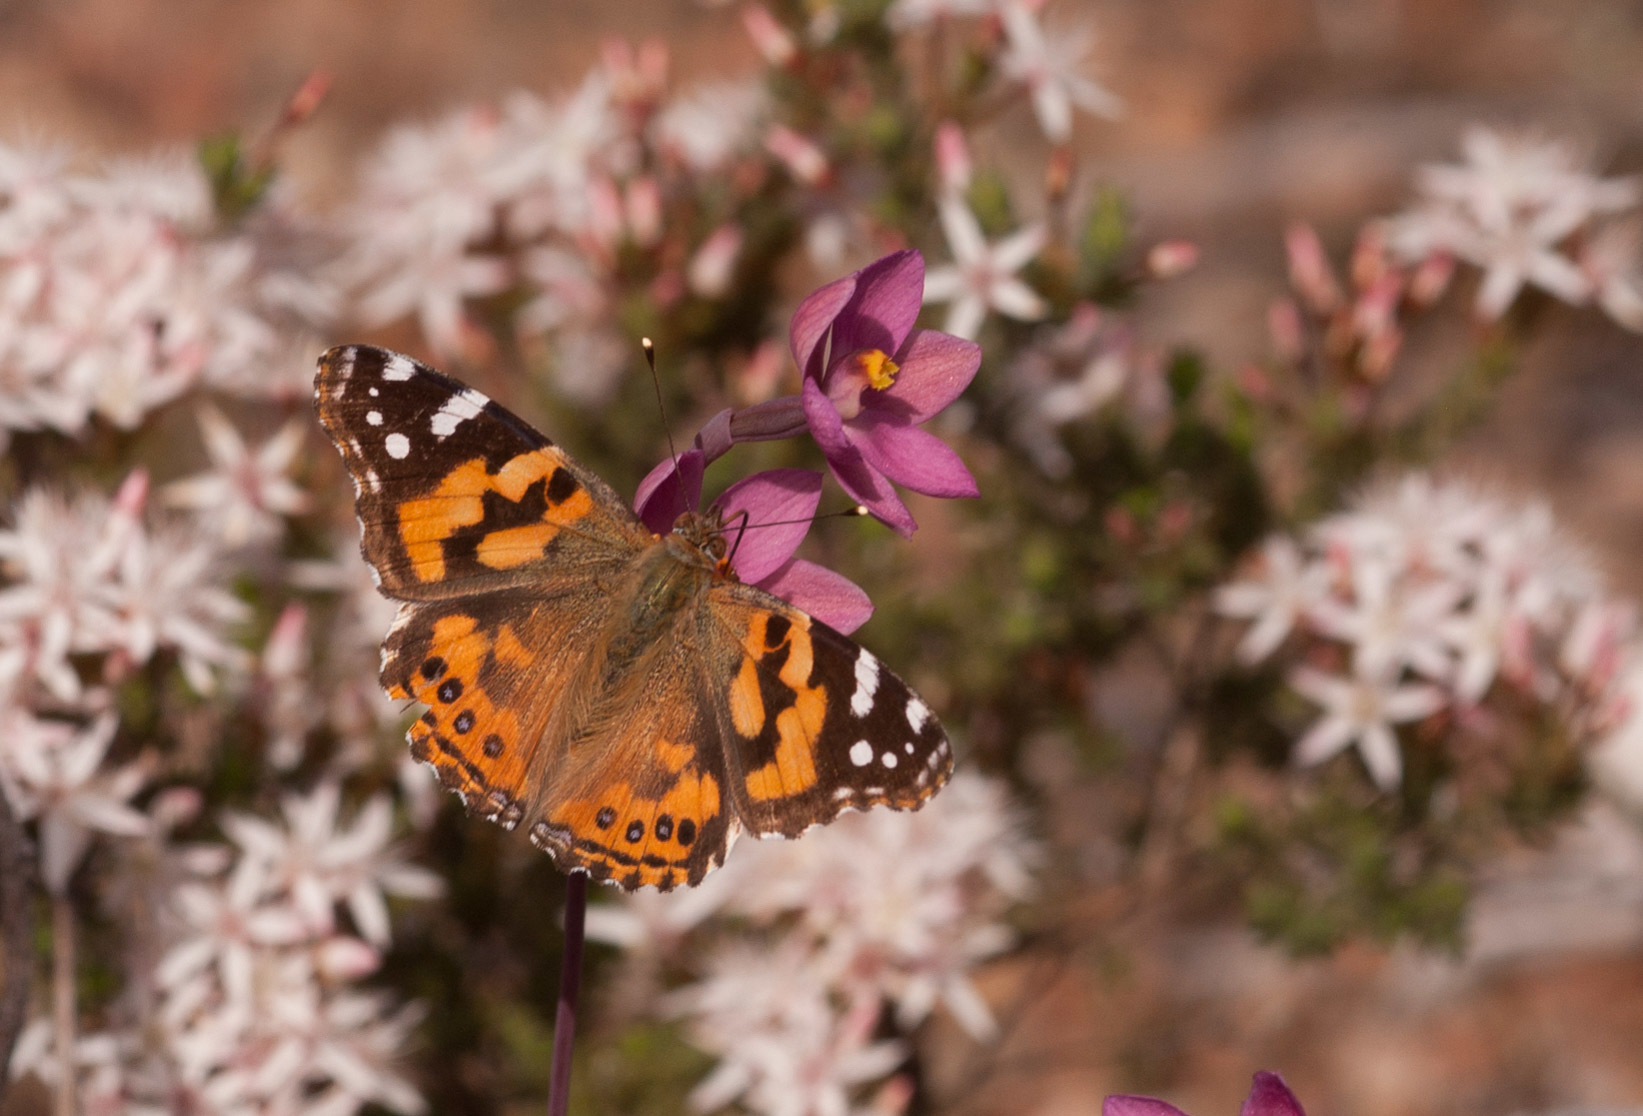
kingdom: Animalia
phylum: Arthropoda
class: Insecta
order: Lepidoptera
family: Nymphalidae
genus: Vanessa
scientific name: Vanessa kershawi
